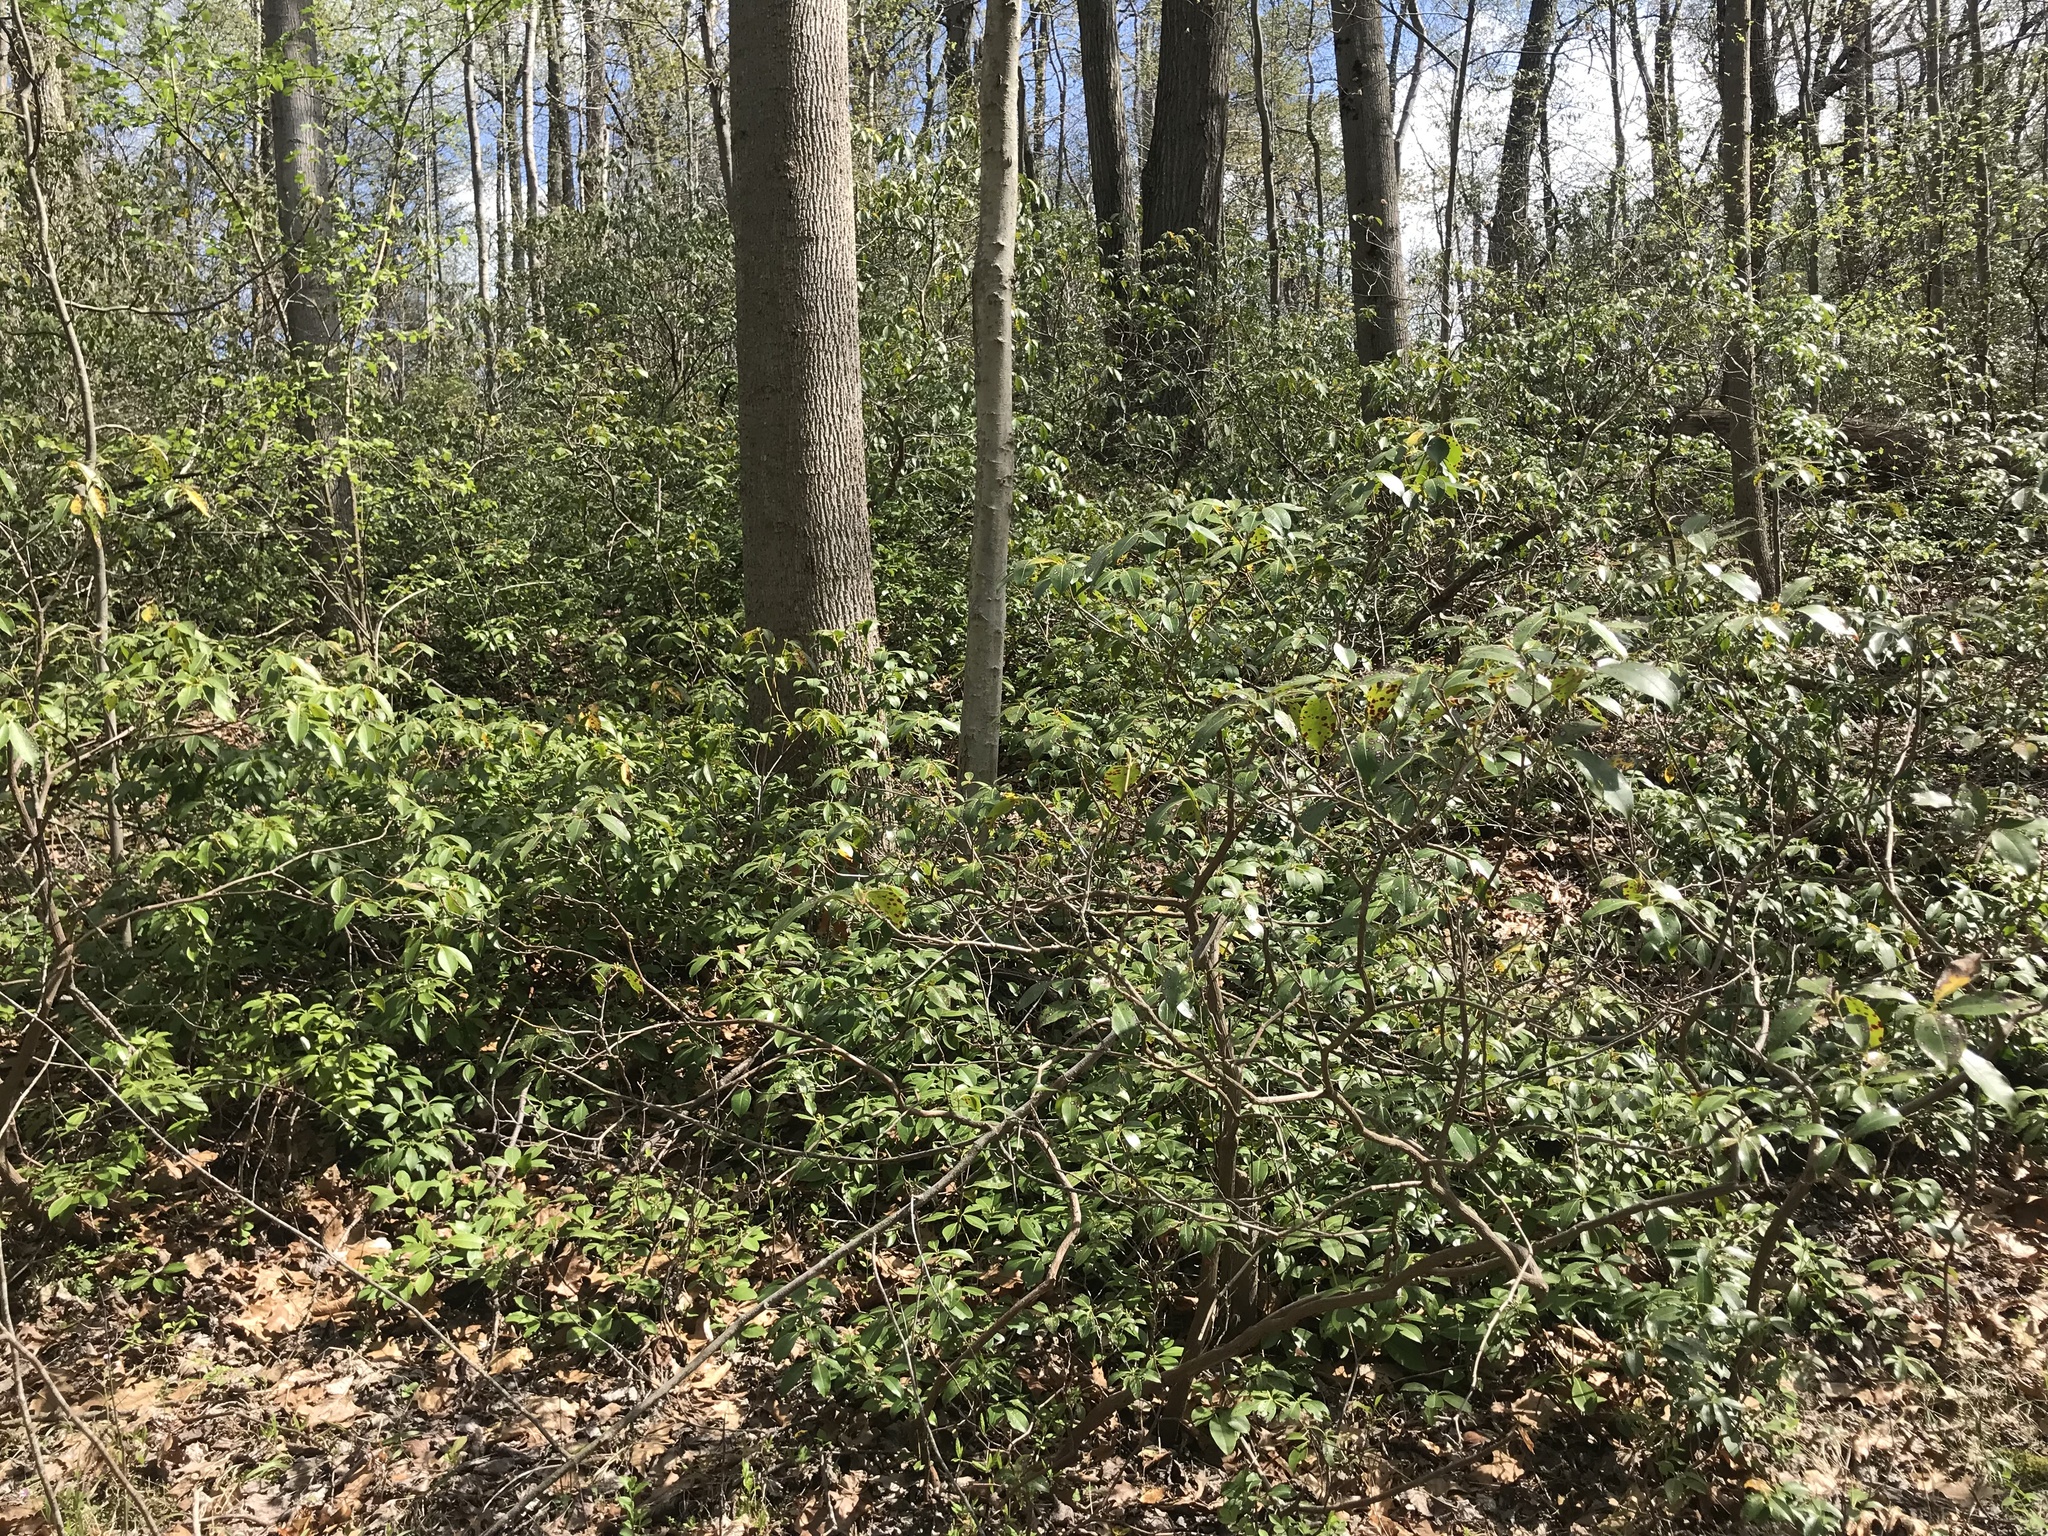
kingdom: Plantae
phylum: Tracheophyta
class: Magnoliopsida
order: Ericales
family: Ericaceae
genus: Kalmia
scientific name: Kalmia latifolia
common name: Mountain-laurel
